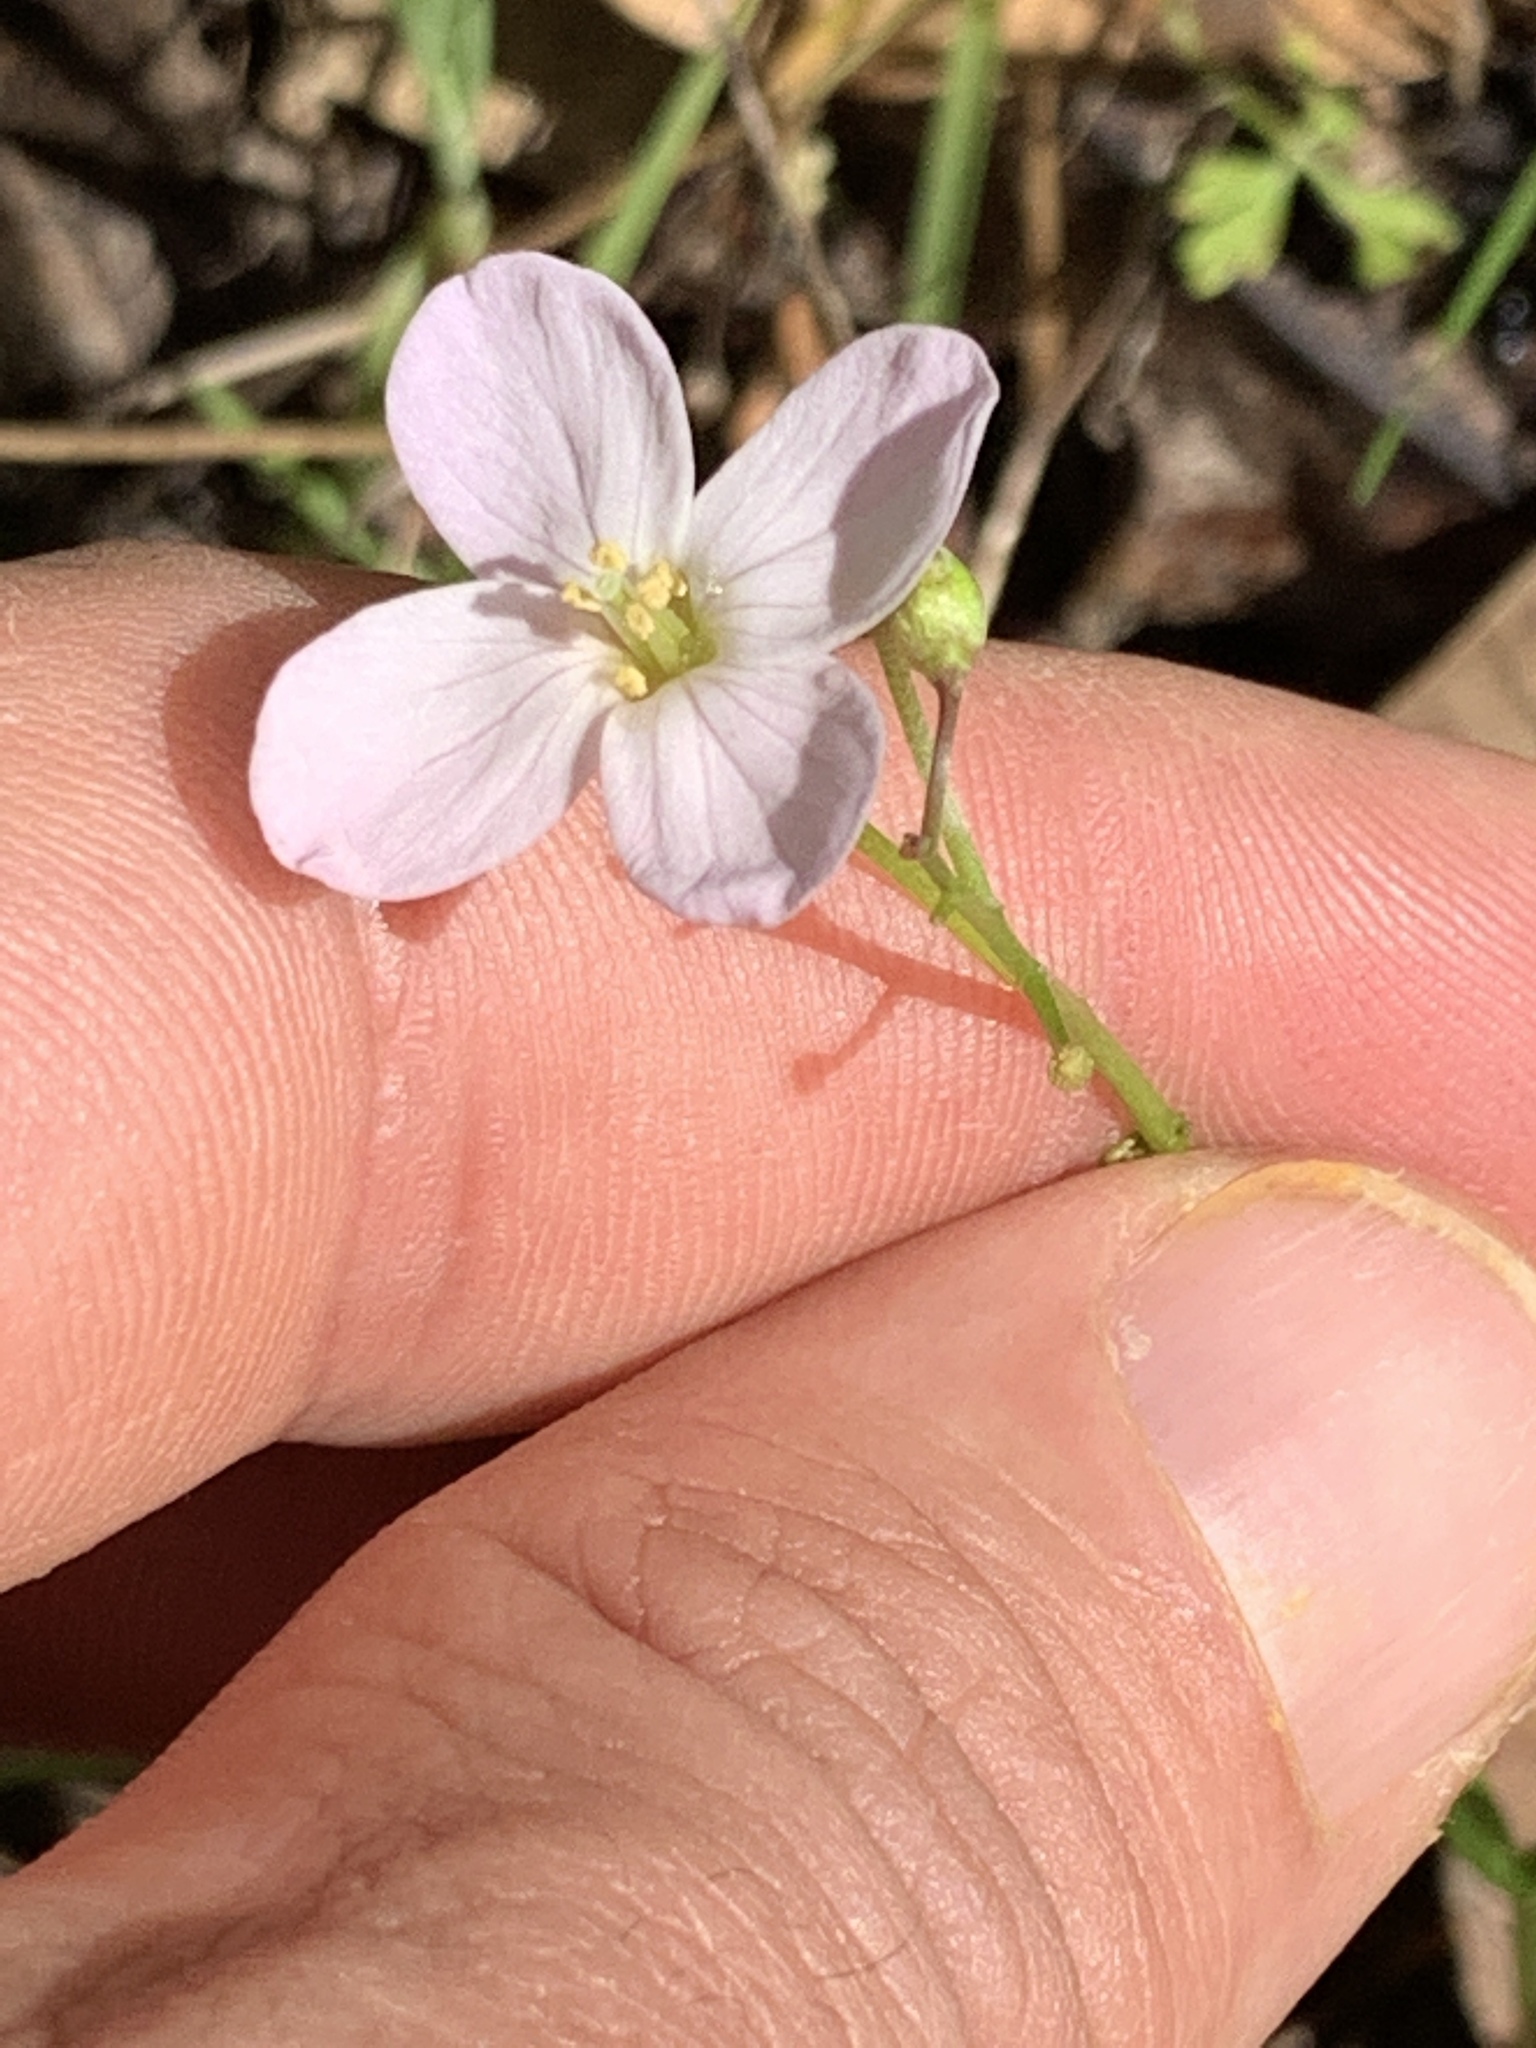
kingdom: Plantae
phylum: Tracheophyta
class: Magnoliopsida
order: Brassicales
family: Brassicaceae
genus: Cardamine
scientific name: Cardamine californica
